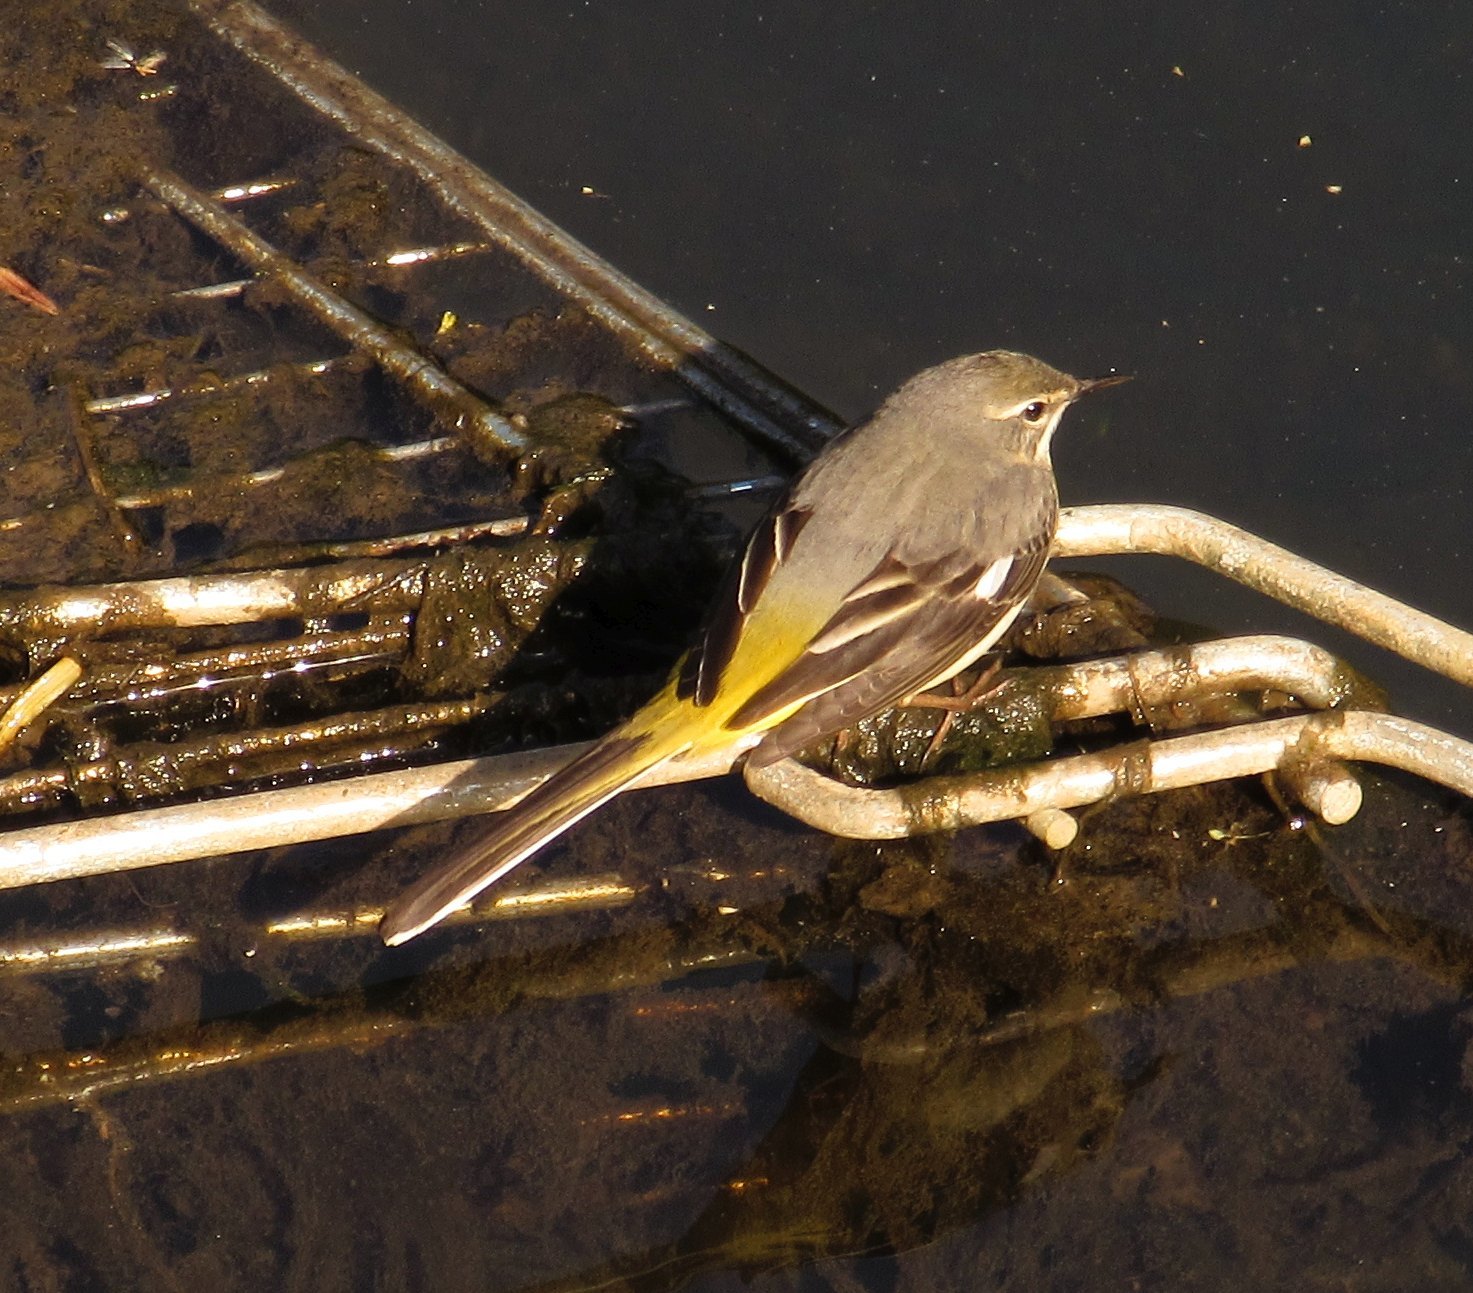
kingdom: Animalia
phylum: Chordata
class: Aves
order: Passeriformes
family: Motacillidae
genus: Motacilla
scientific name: Motacilla cinerea
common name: Grey wagtail
